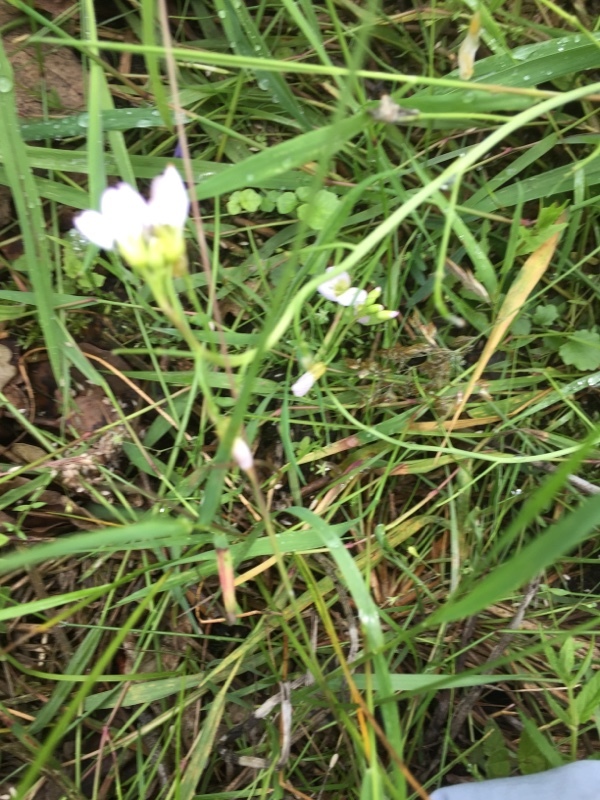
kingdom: Plantae
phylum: Tracheophyta
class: Magnoliopsida
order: Brassicales
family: Brassicaceae
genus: Cardamine
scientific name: Cardamine pratensis
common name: Cuckoo flower
